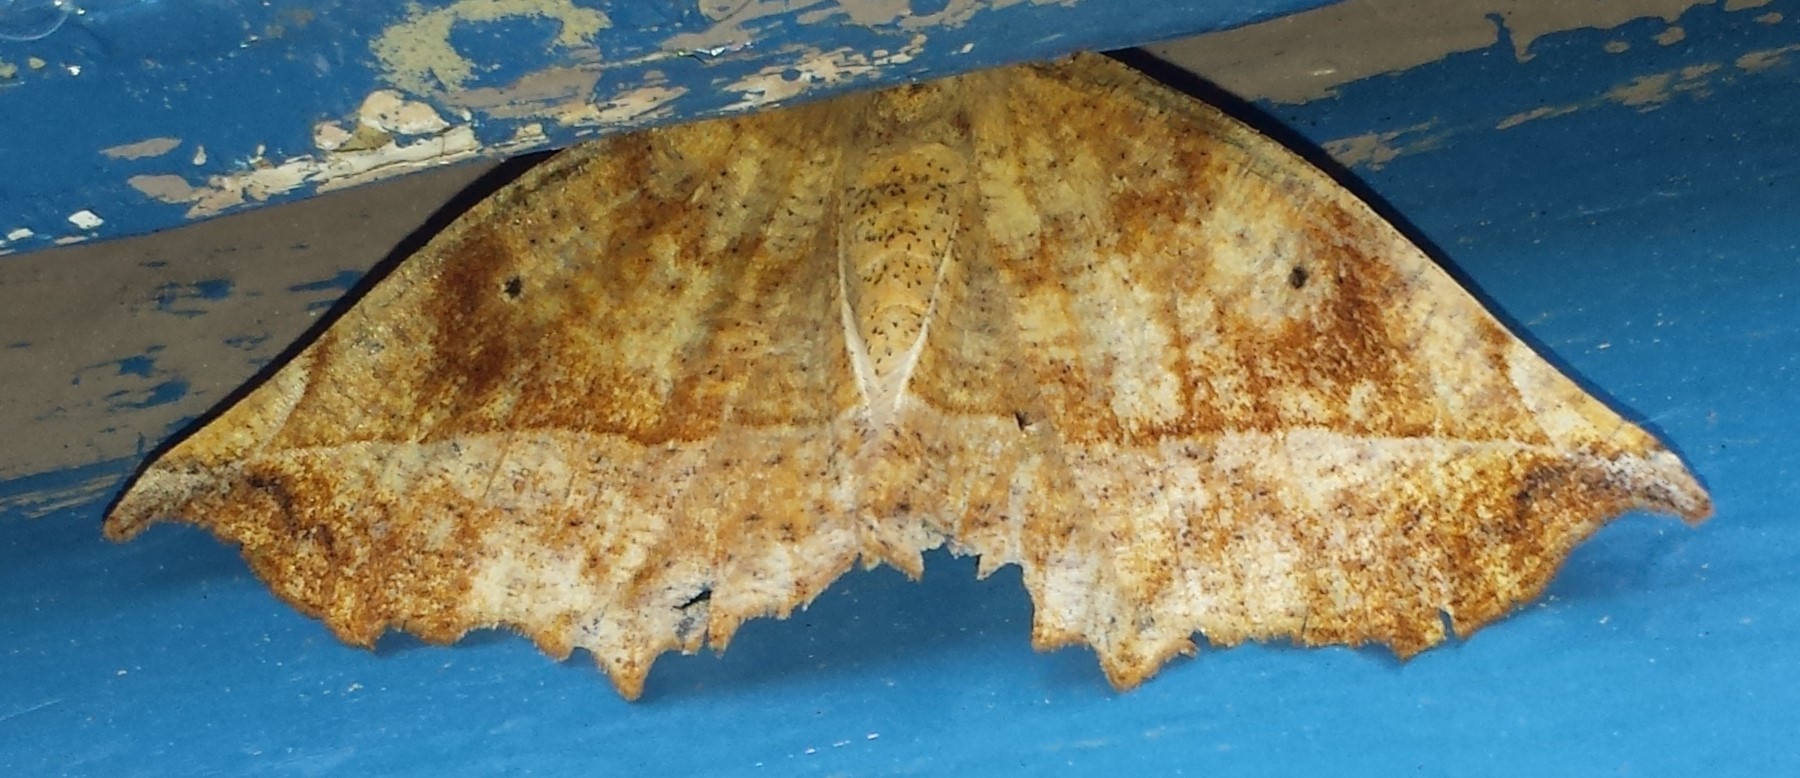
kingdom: Animalia
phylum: Arthropoda
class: Insecta
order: Lepidoptera
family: Geometridae
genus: Eutrapela
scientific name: Eutrapela clemataria
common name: Curved-toothed geometer
